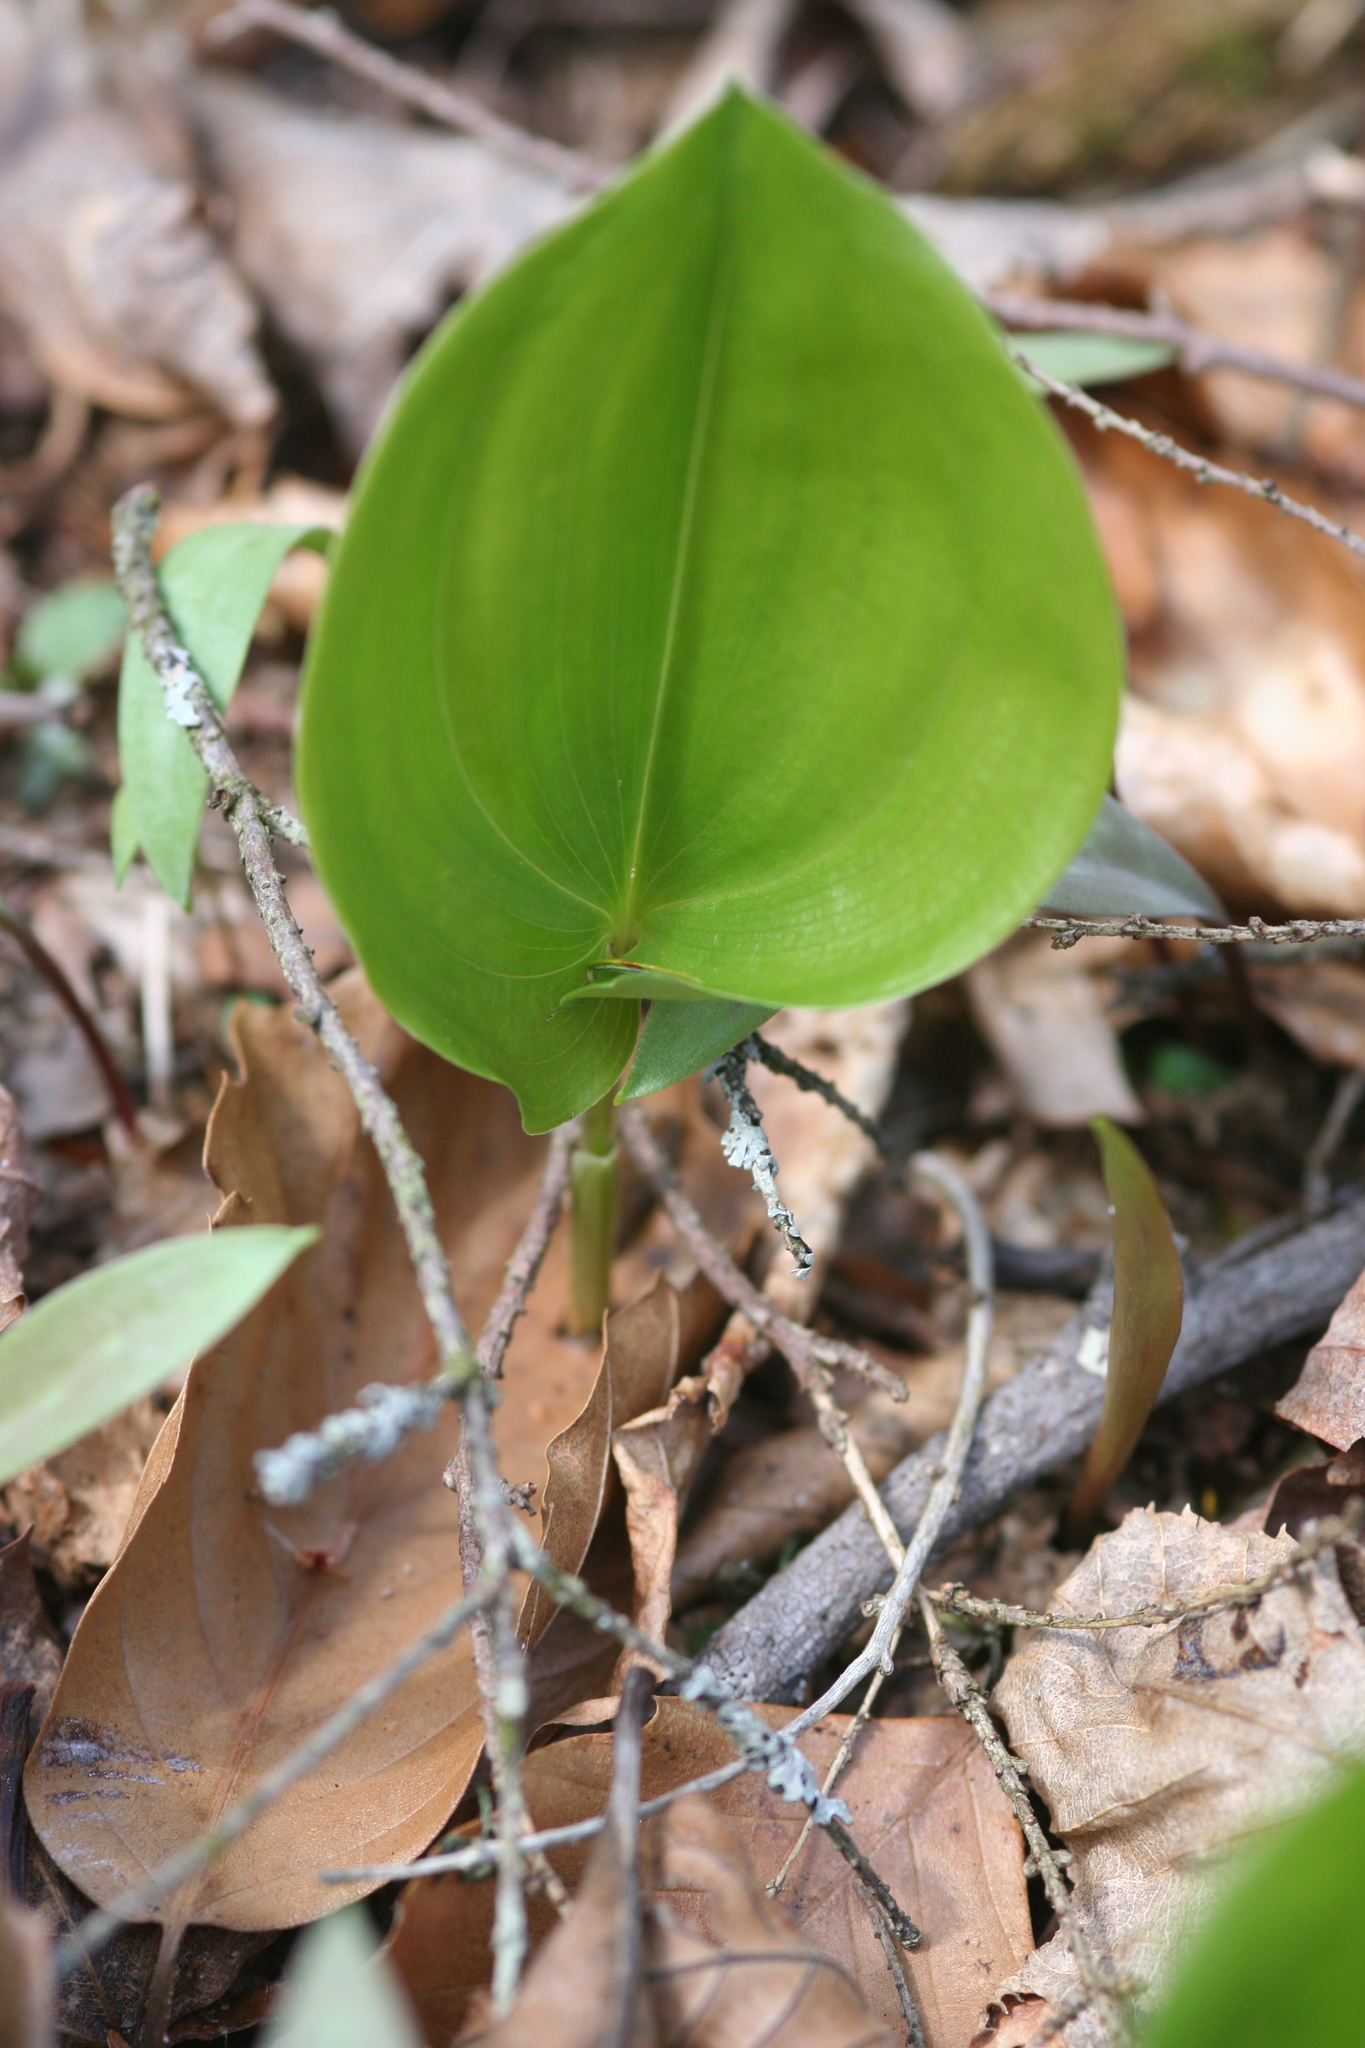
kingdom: Plantae
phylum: Tracheophyta
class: Liliopsida
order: Asparagales
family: Asparagaceae
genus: Maianthemum
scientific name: Maianthemum canadense
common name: False lily-of-the-valley
